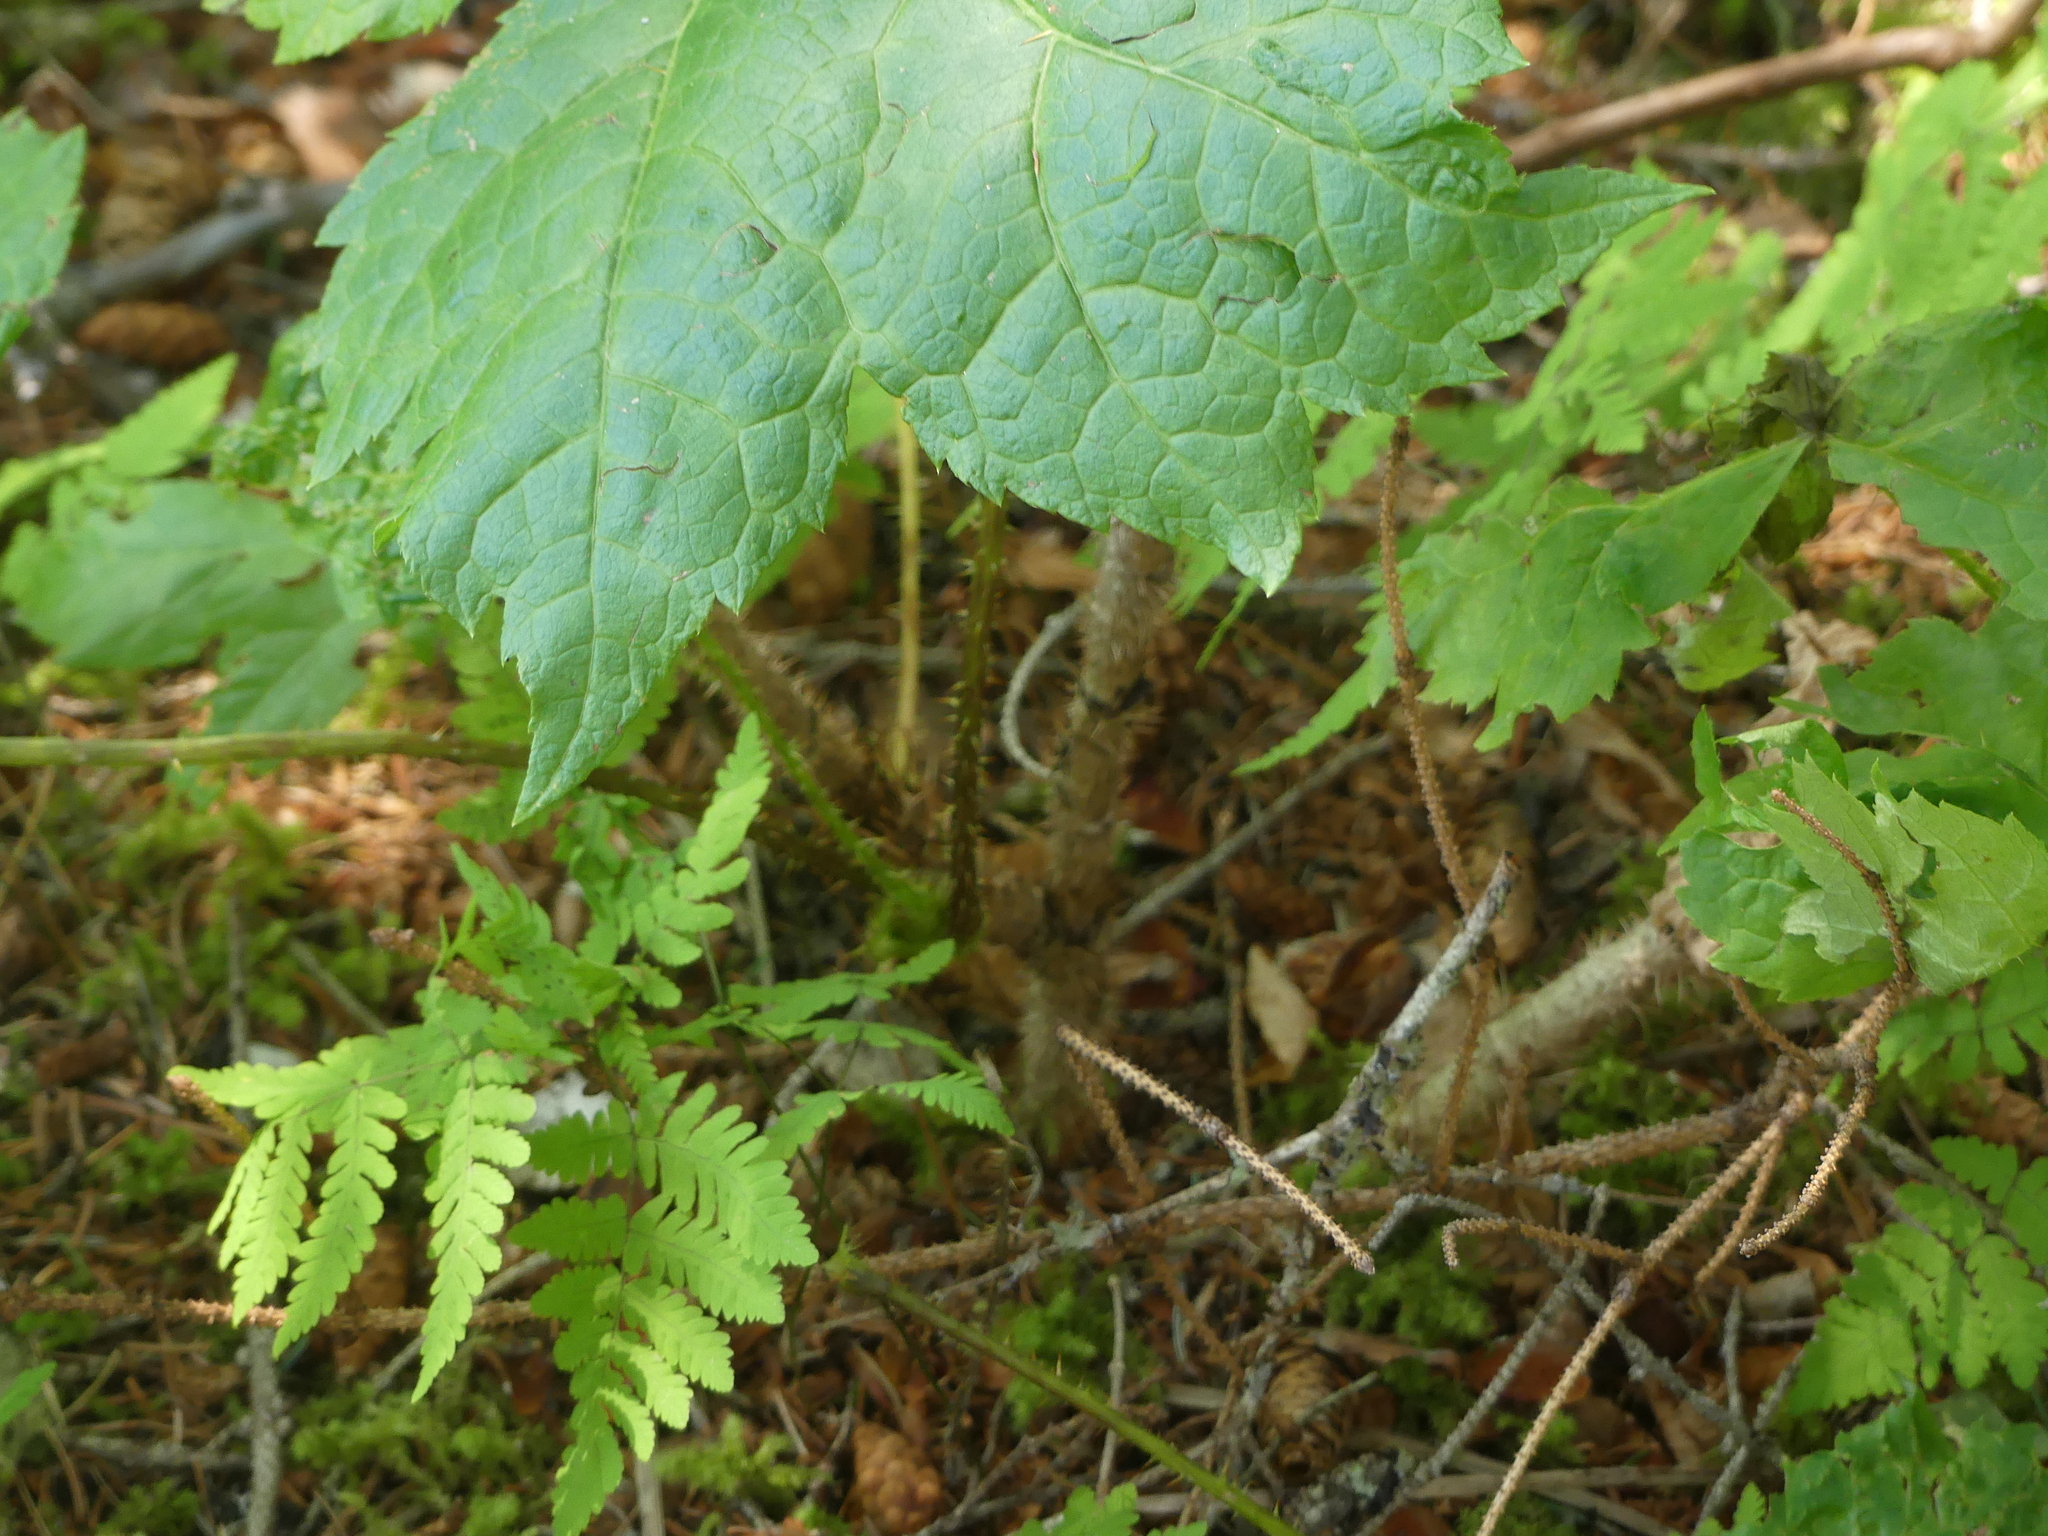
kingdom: Plantae
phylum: Tracheophyta
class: Magnoliopsida
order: Apiales
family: Araliaceae
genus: Oplopanax
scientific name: Oplopanax horridus
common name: Devil's walking-stick
